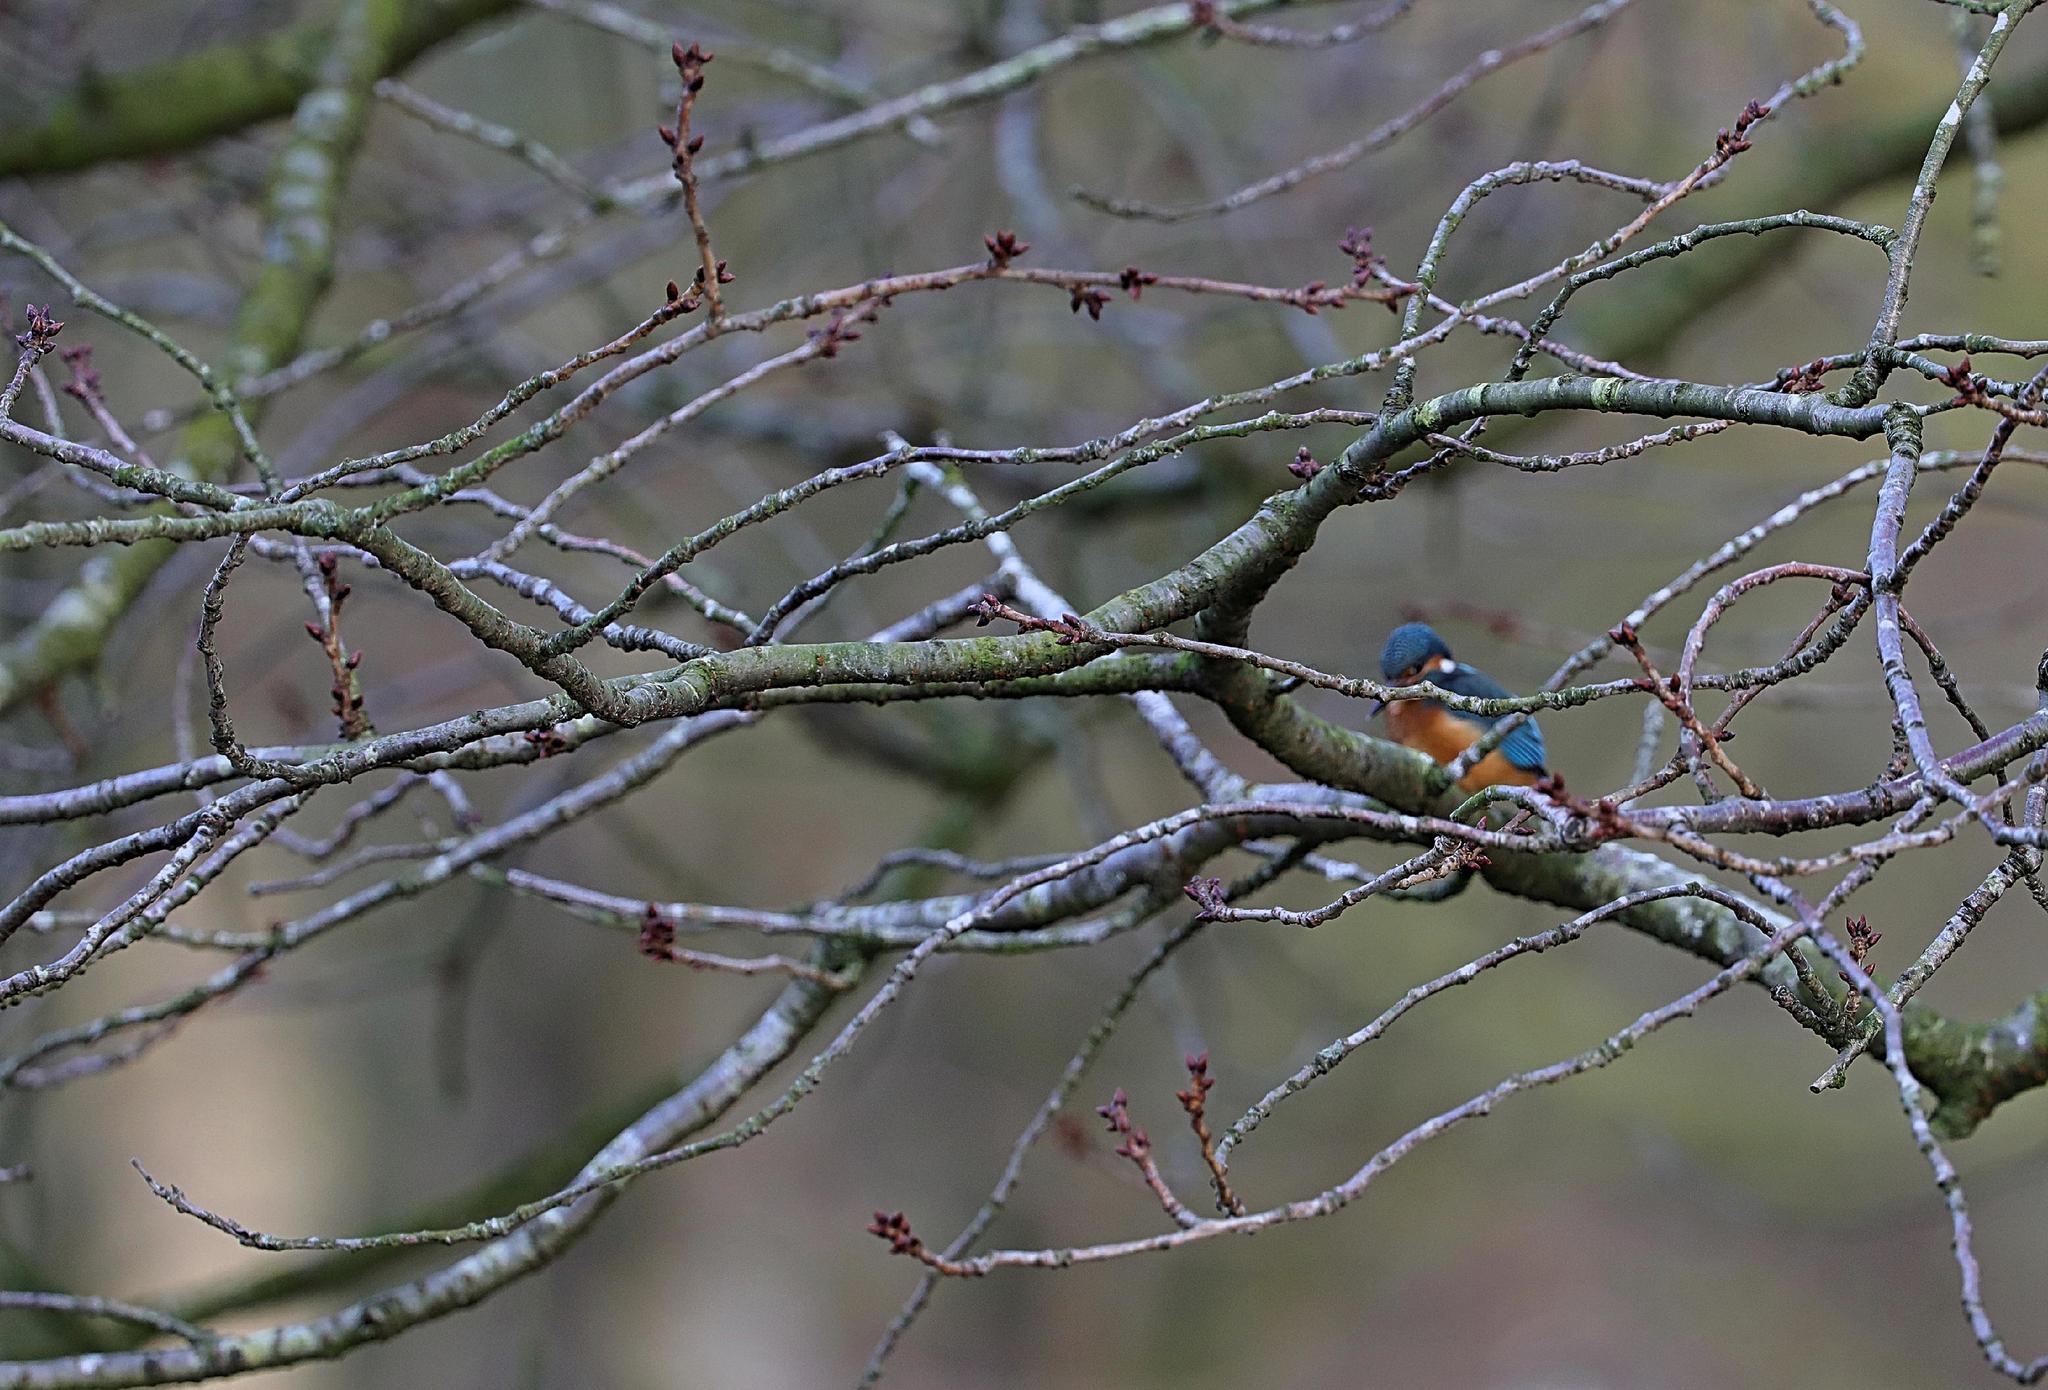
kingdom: Animalia
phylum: Chordata
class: Aves
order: Coraciiformes
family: Alcedinidae
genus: Alcedo
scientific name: Alcedo atthis
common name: Common kingfisher
